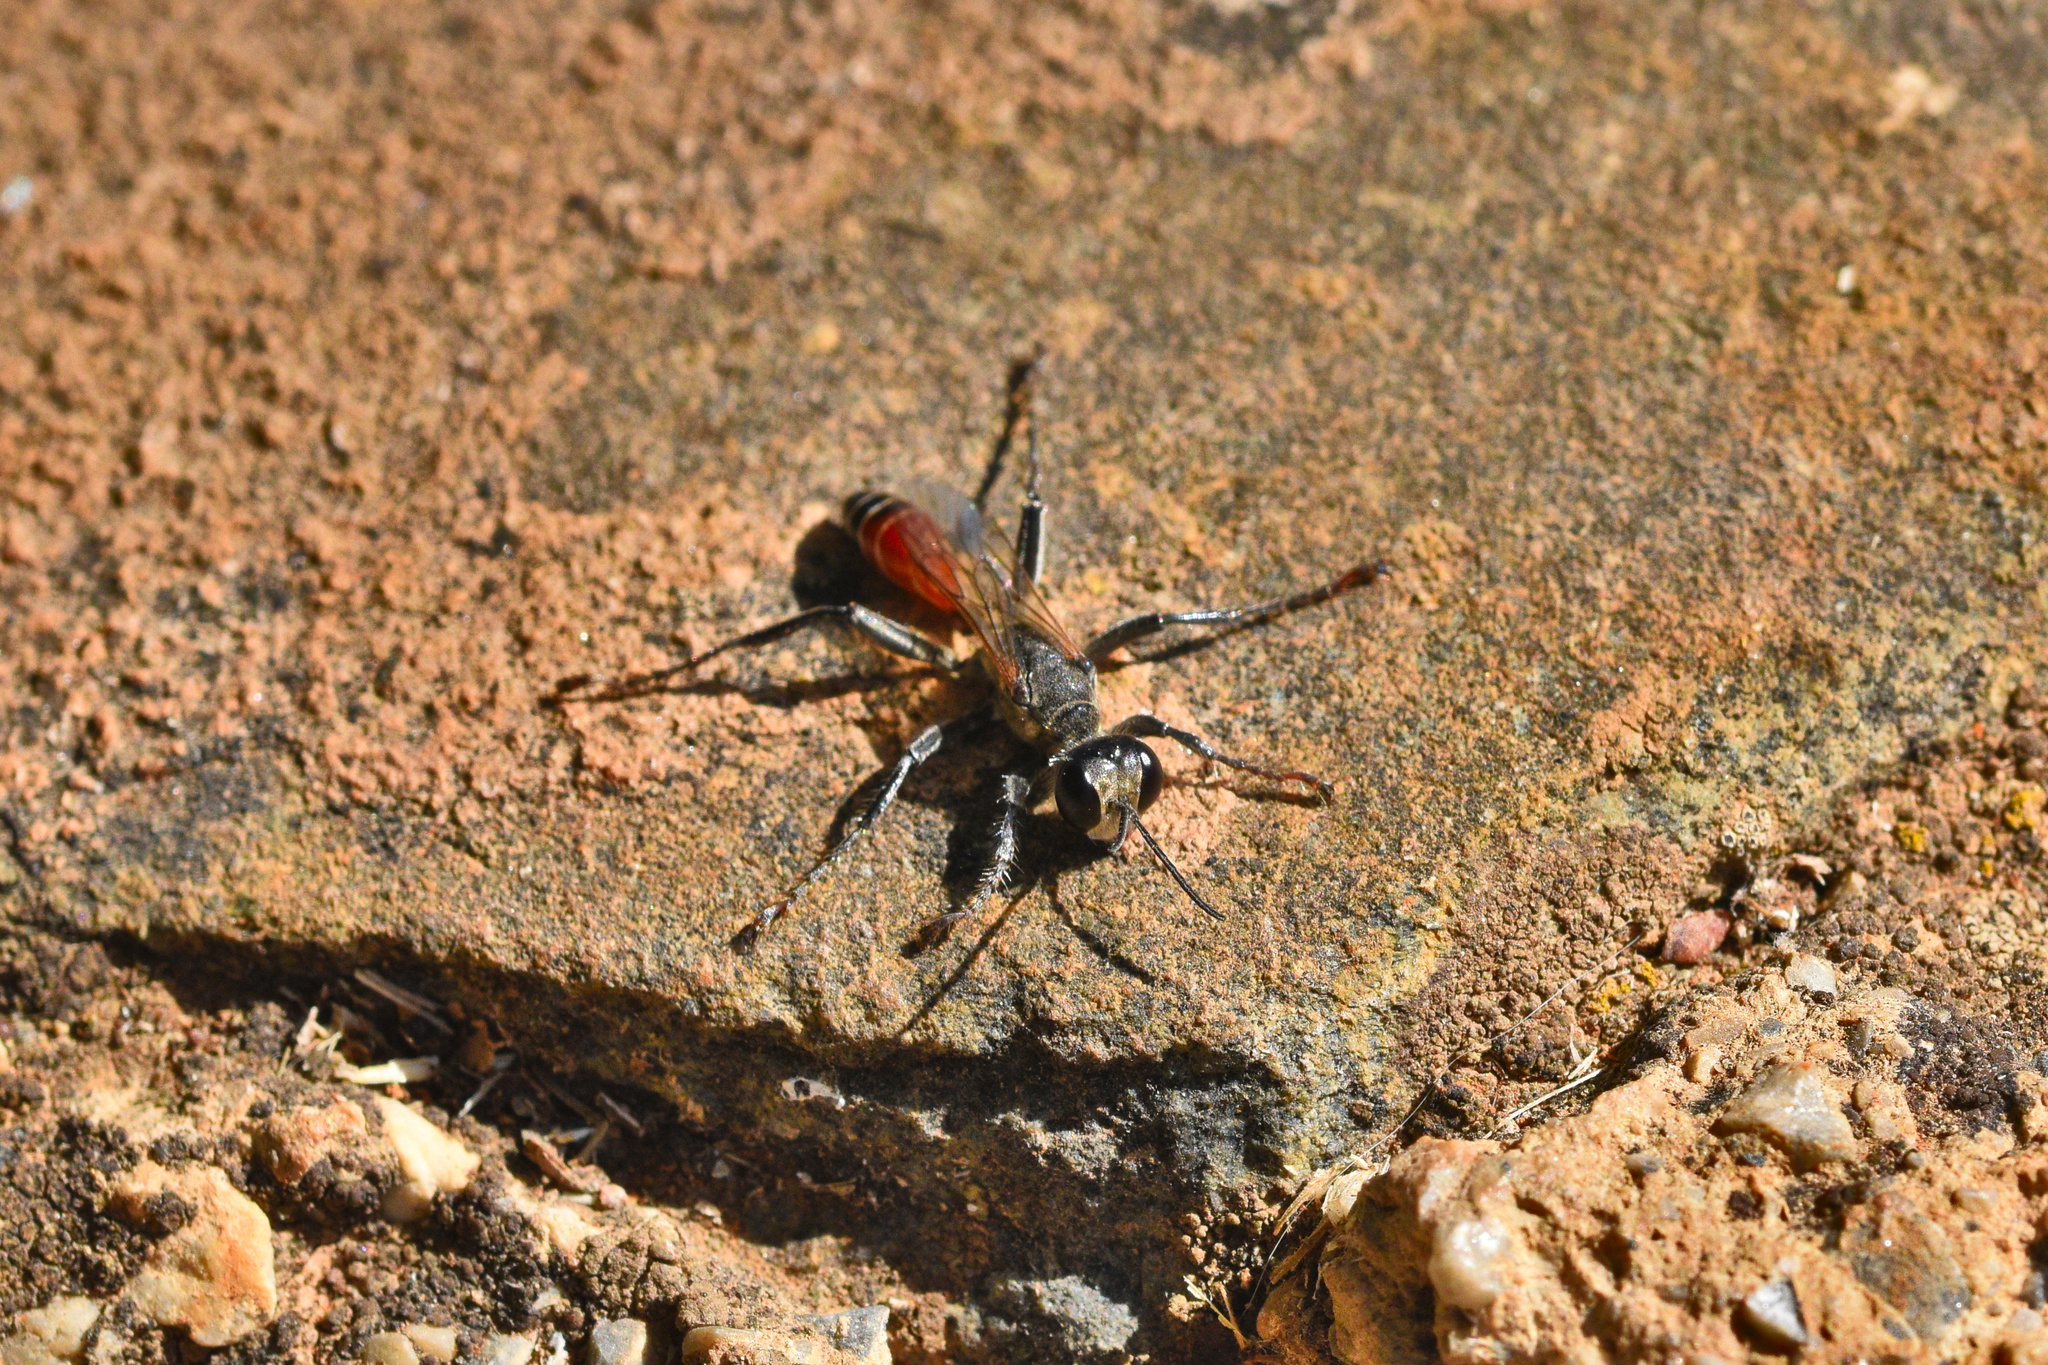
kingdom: Animalia
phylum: Arthropoda
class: Insecta
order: Hymenoptera
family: Sphecidae
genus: Prionyx
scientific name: Prionyx kirbii
